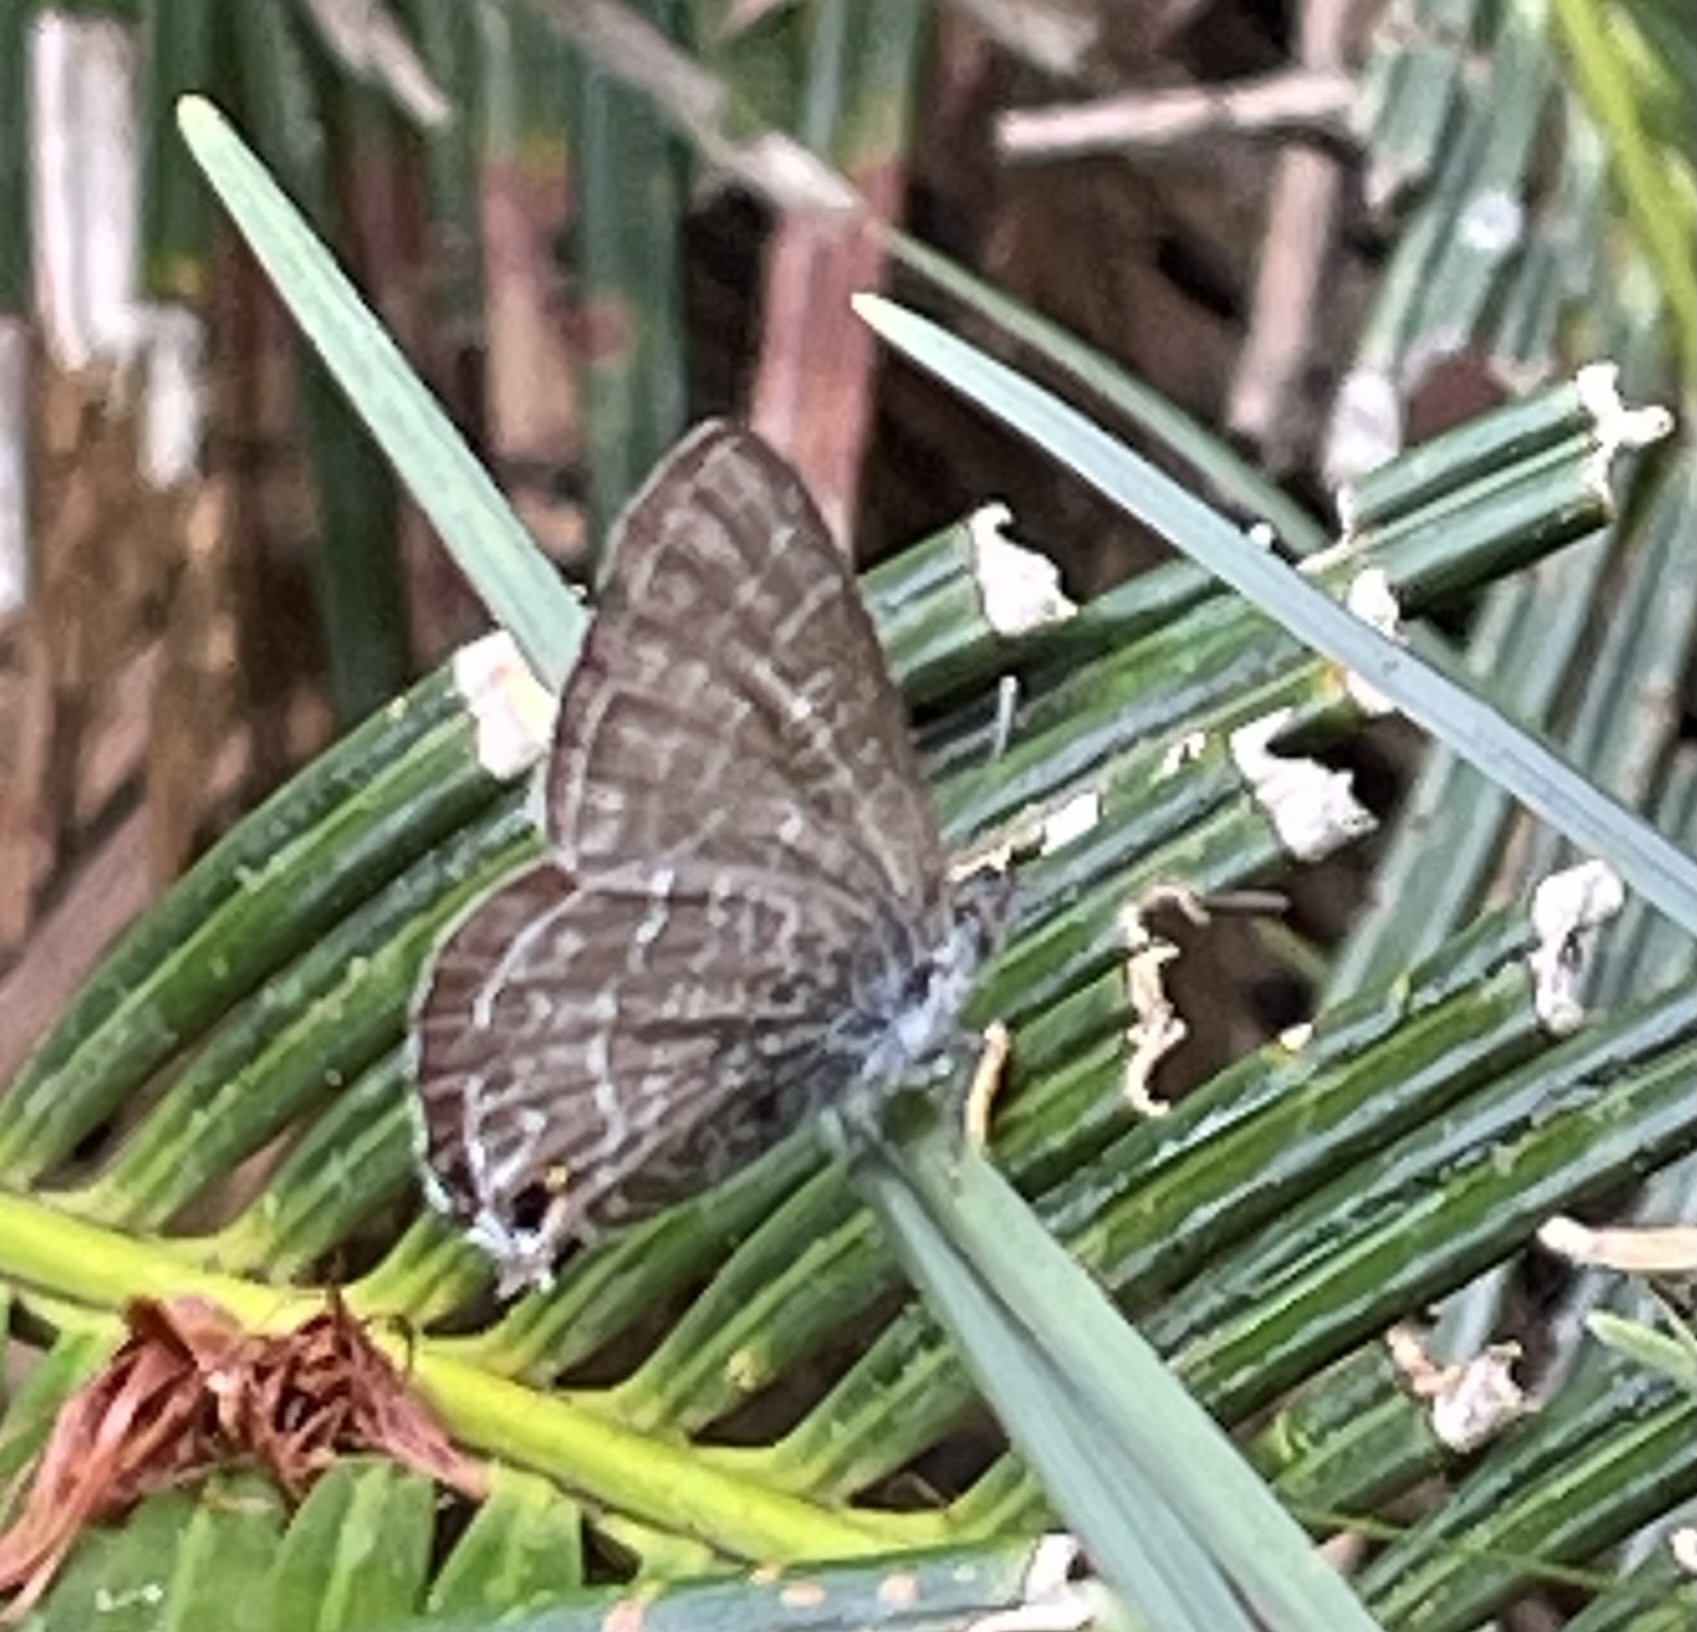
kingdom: Animalia
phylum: Arthropoda
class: Insecta
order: Lepidoptera
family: Lycaenidae
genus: Theclinesthes
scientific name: Theclinesthes onycha
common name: Cycad blue
